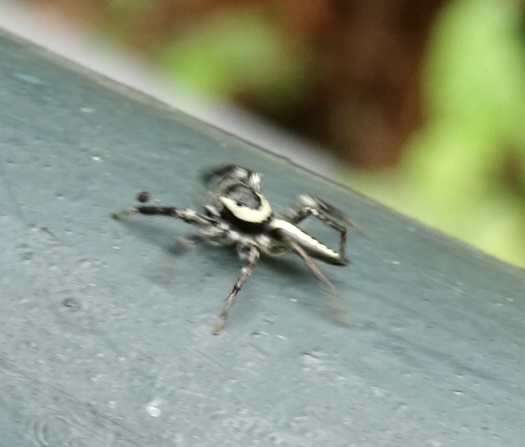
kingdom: Animalia
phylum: Arthropoda
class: Arachnida
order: Araneae
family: Salticidae
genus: Telamonia
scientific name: Telamonia caprina
